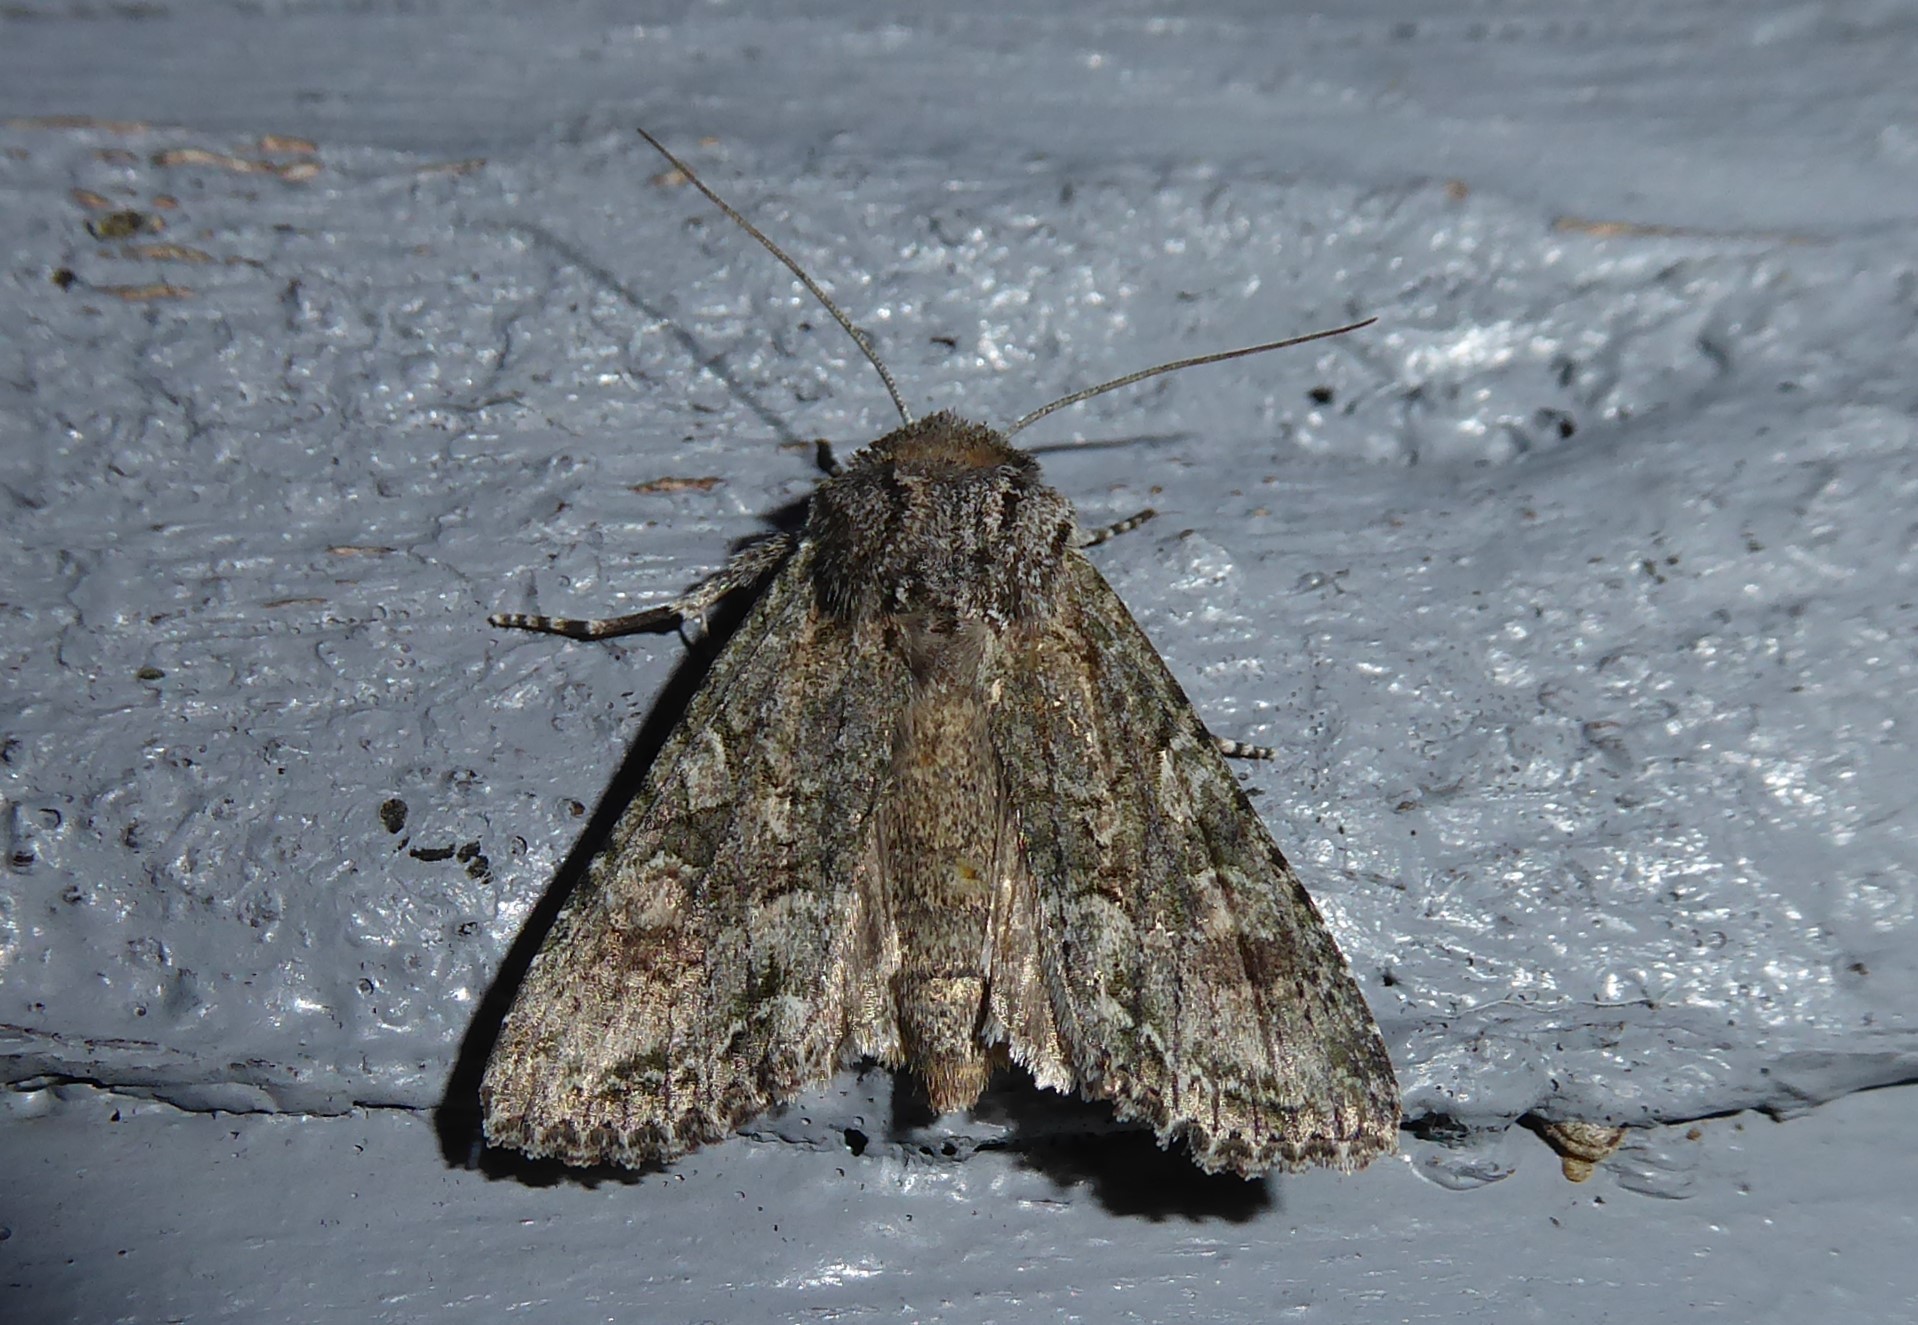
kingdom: Animalia
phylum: Arthropoda
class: Insecta
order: Lepidoptera
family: Noctuidae
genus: Ichneutica
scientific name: Ichneutica mutans
